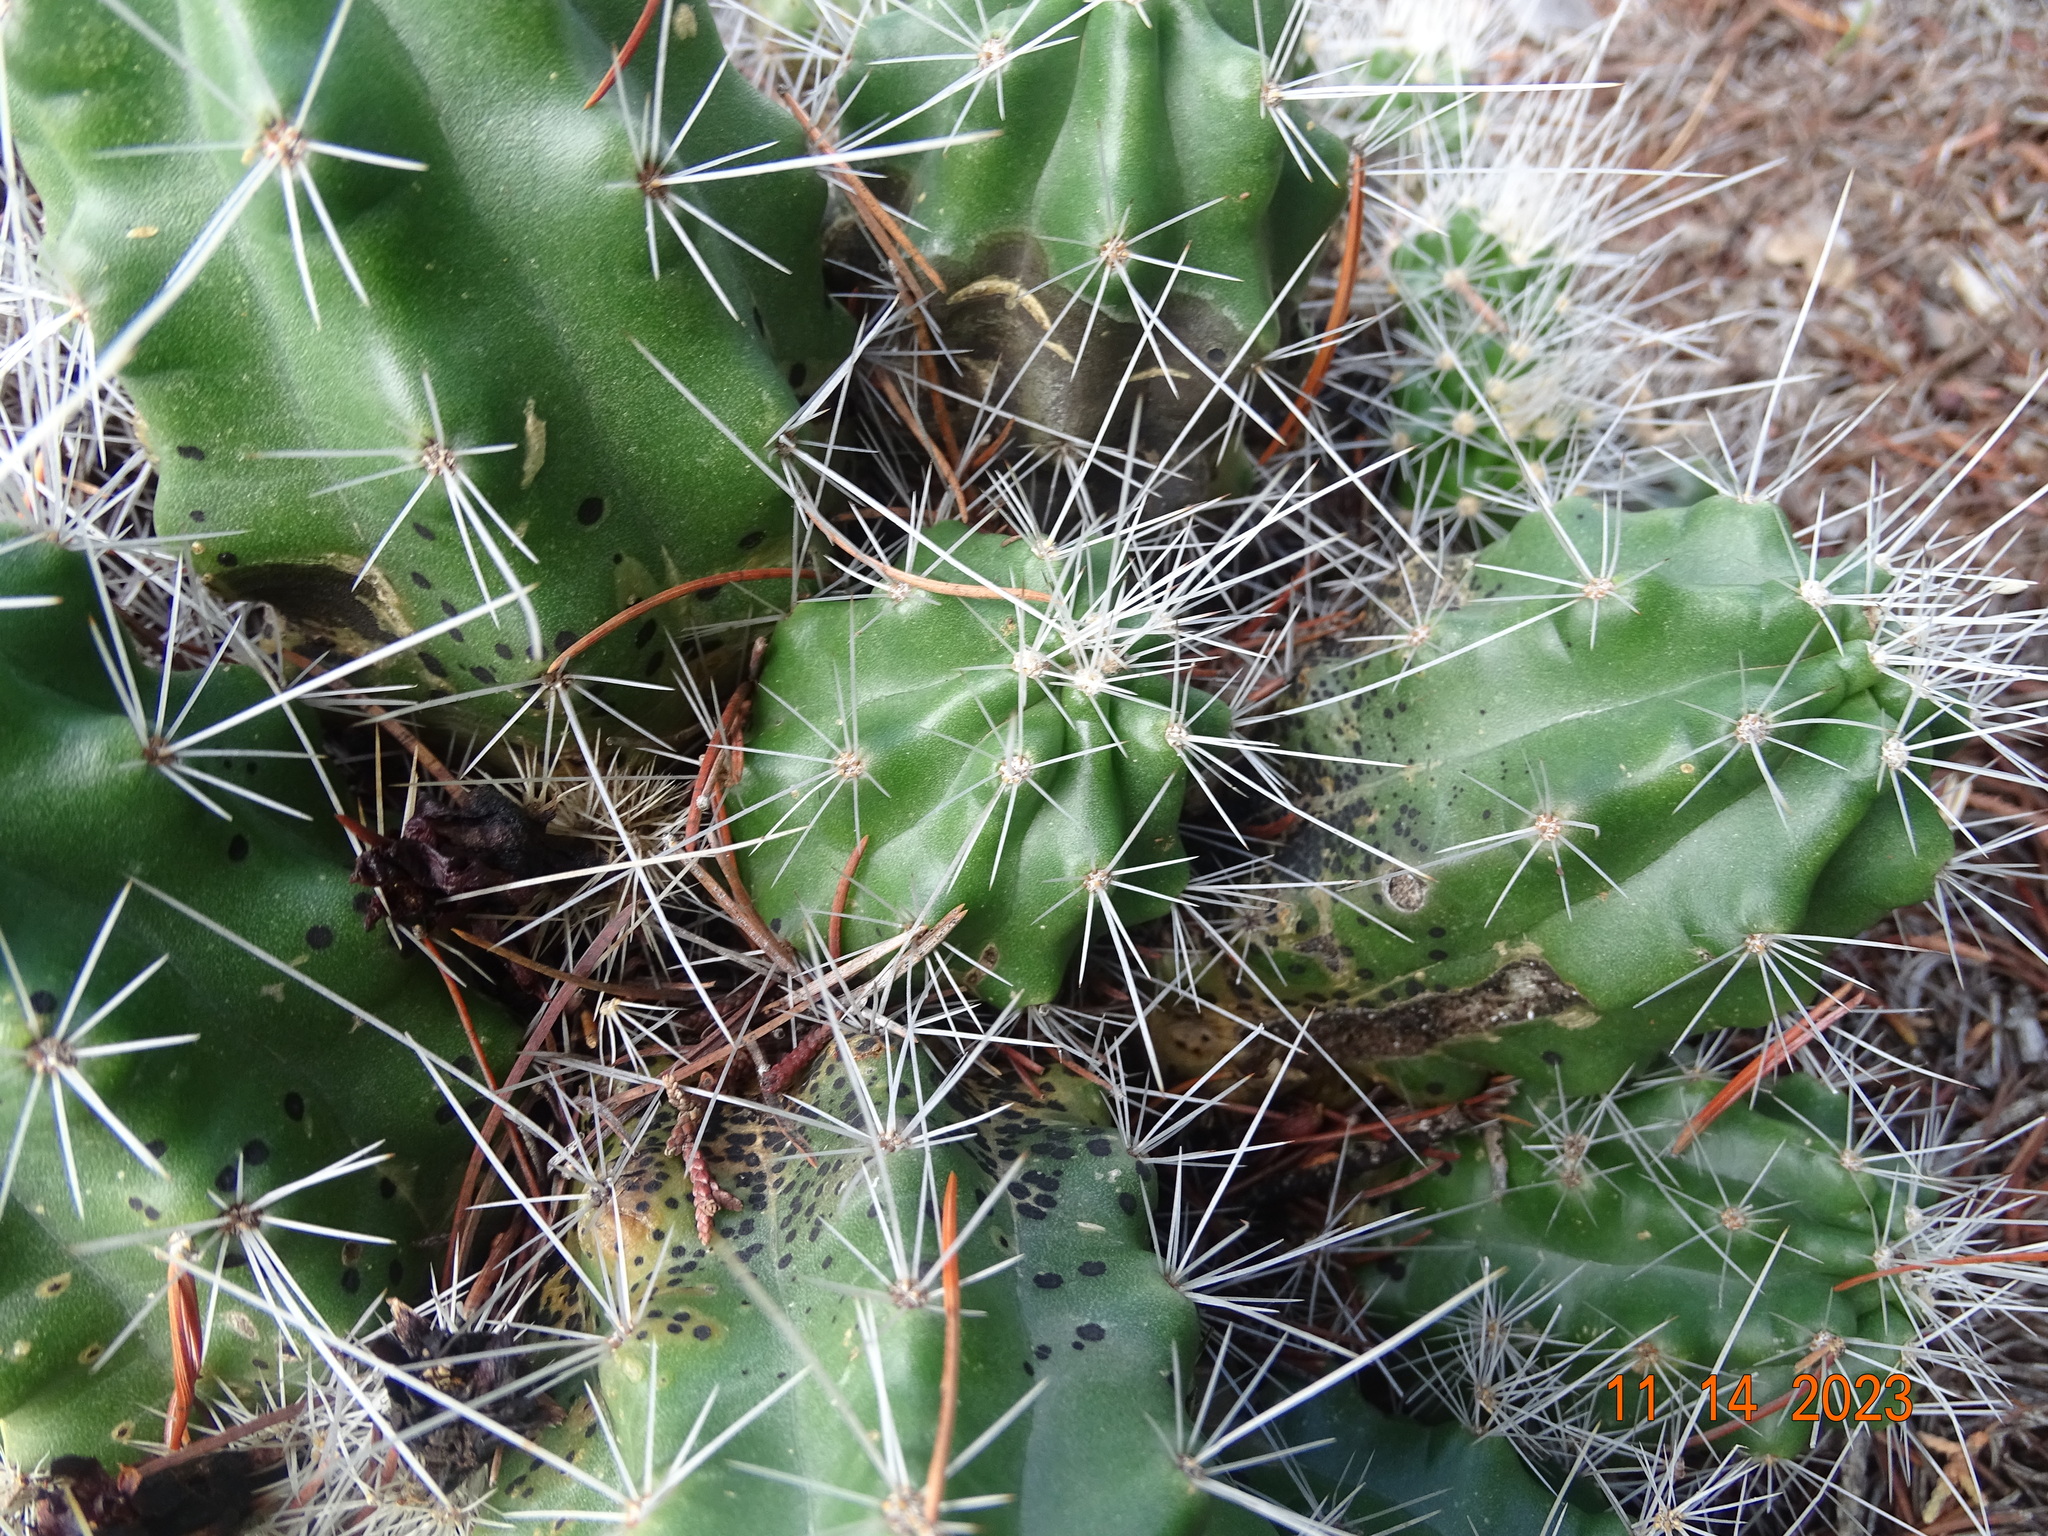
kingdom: Plantae
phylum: Tracheophyta
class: Magnoliopsida
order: Caryophyllales
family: Cactaceae
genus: Echinocereus
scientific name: Echinocereus parkeri
